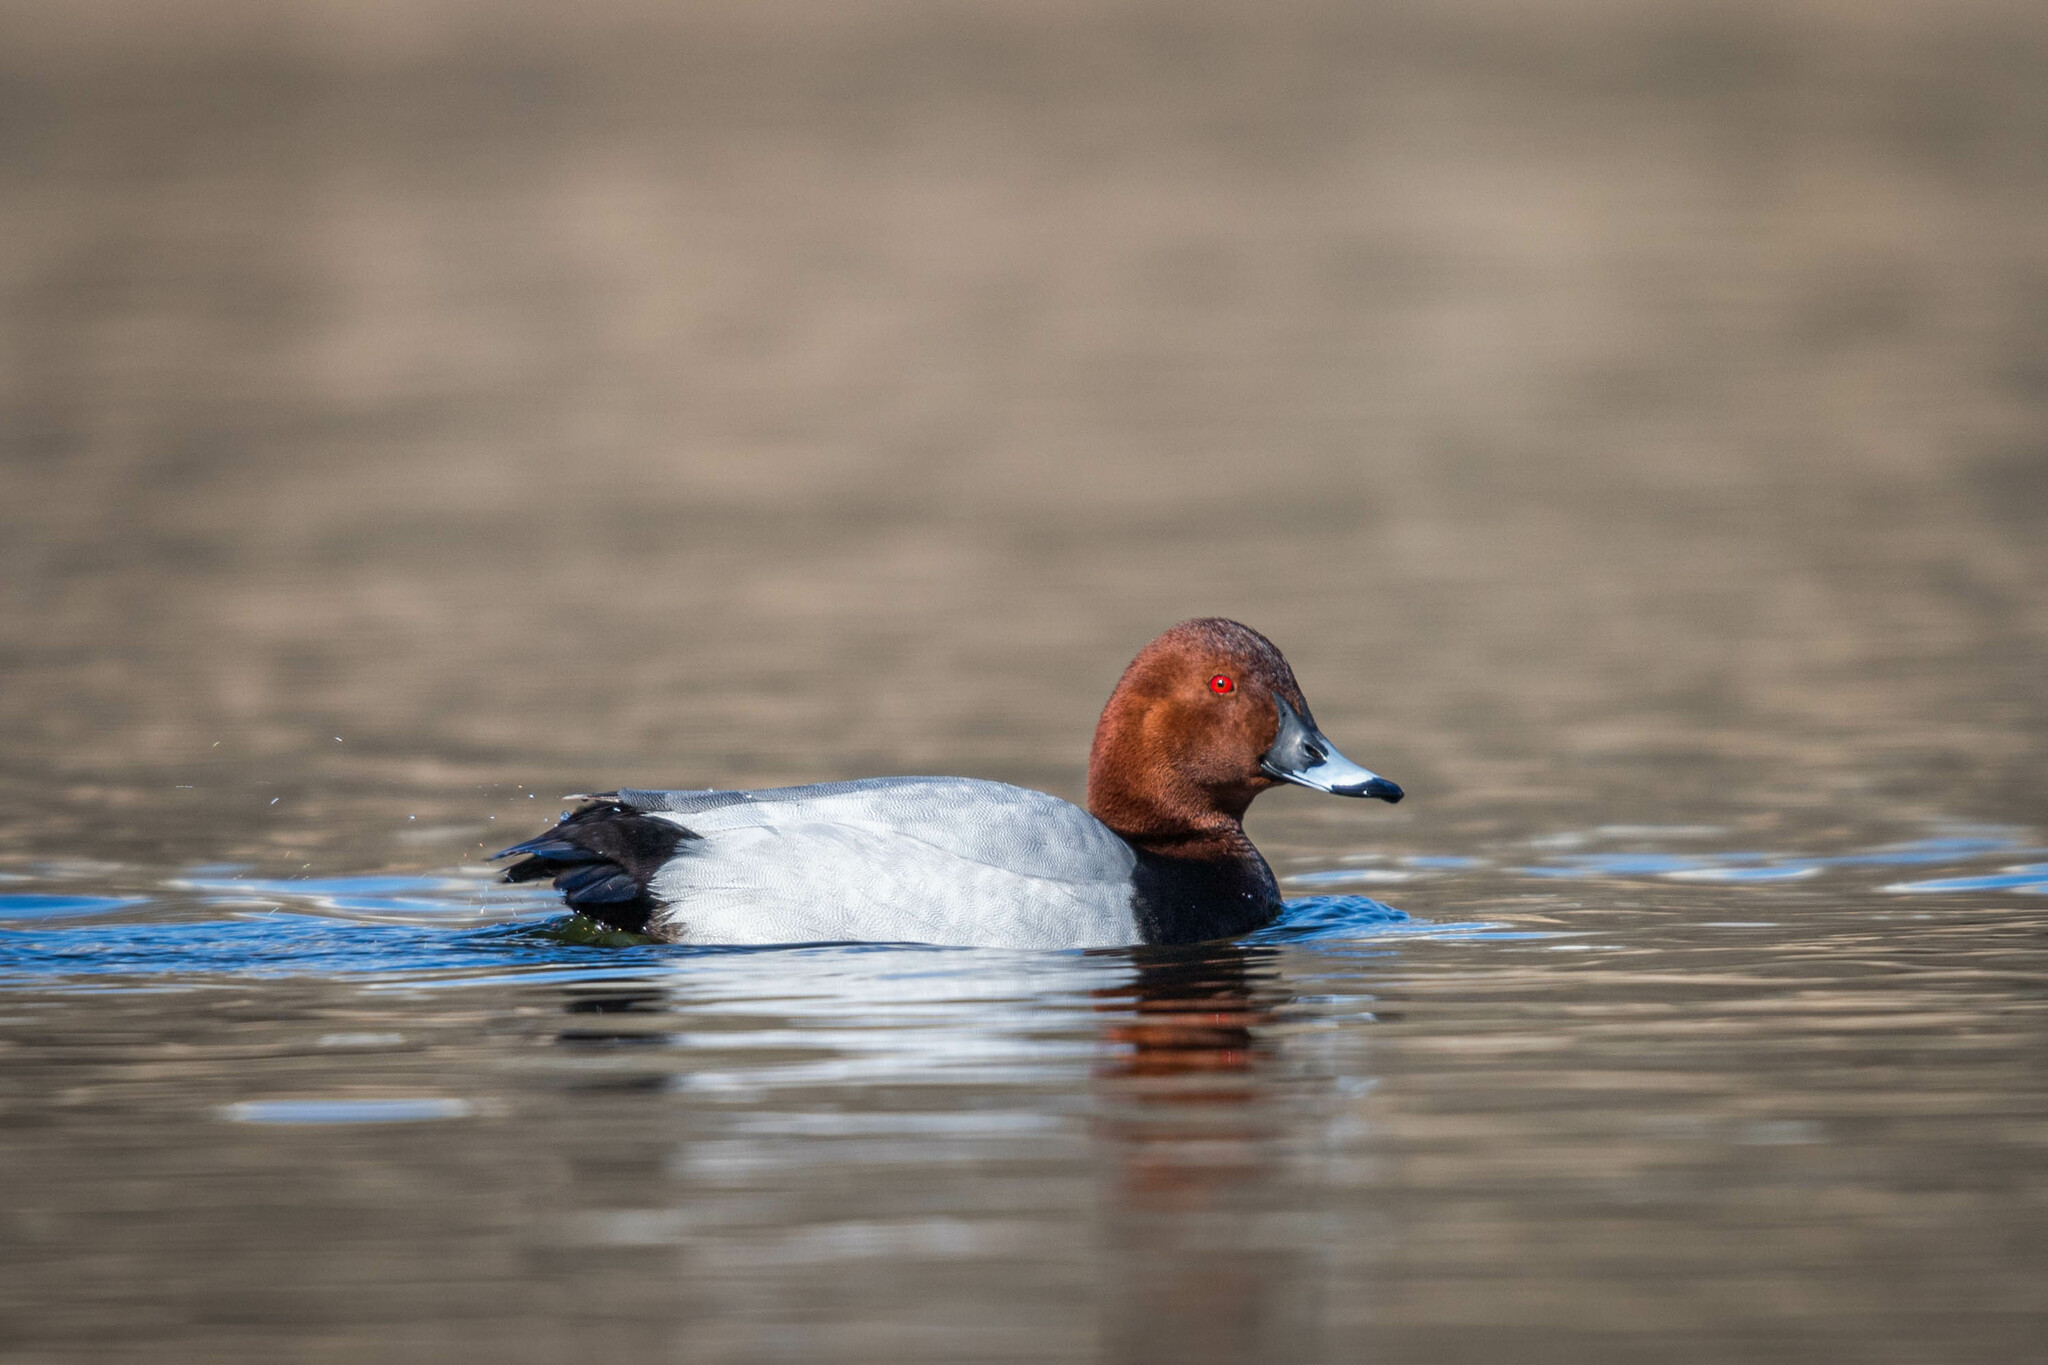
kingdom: Animalia
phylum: Chordata
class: Aves
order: Anseriformes
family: Anatidae
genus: Aythya
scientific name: Aythya ferina
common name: Common pochard
